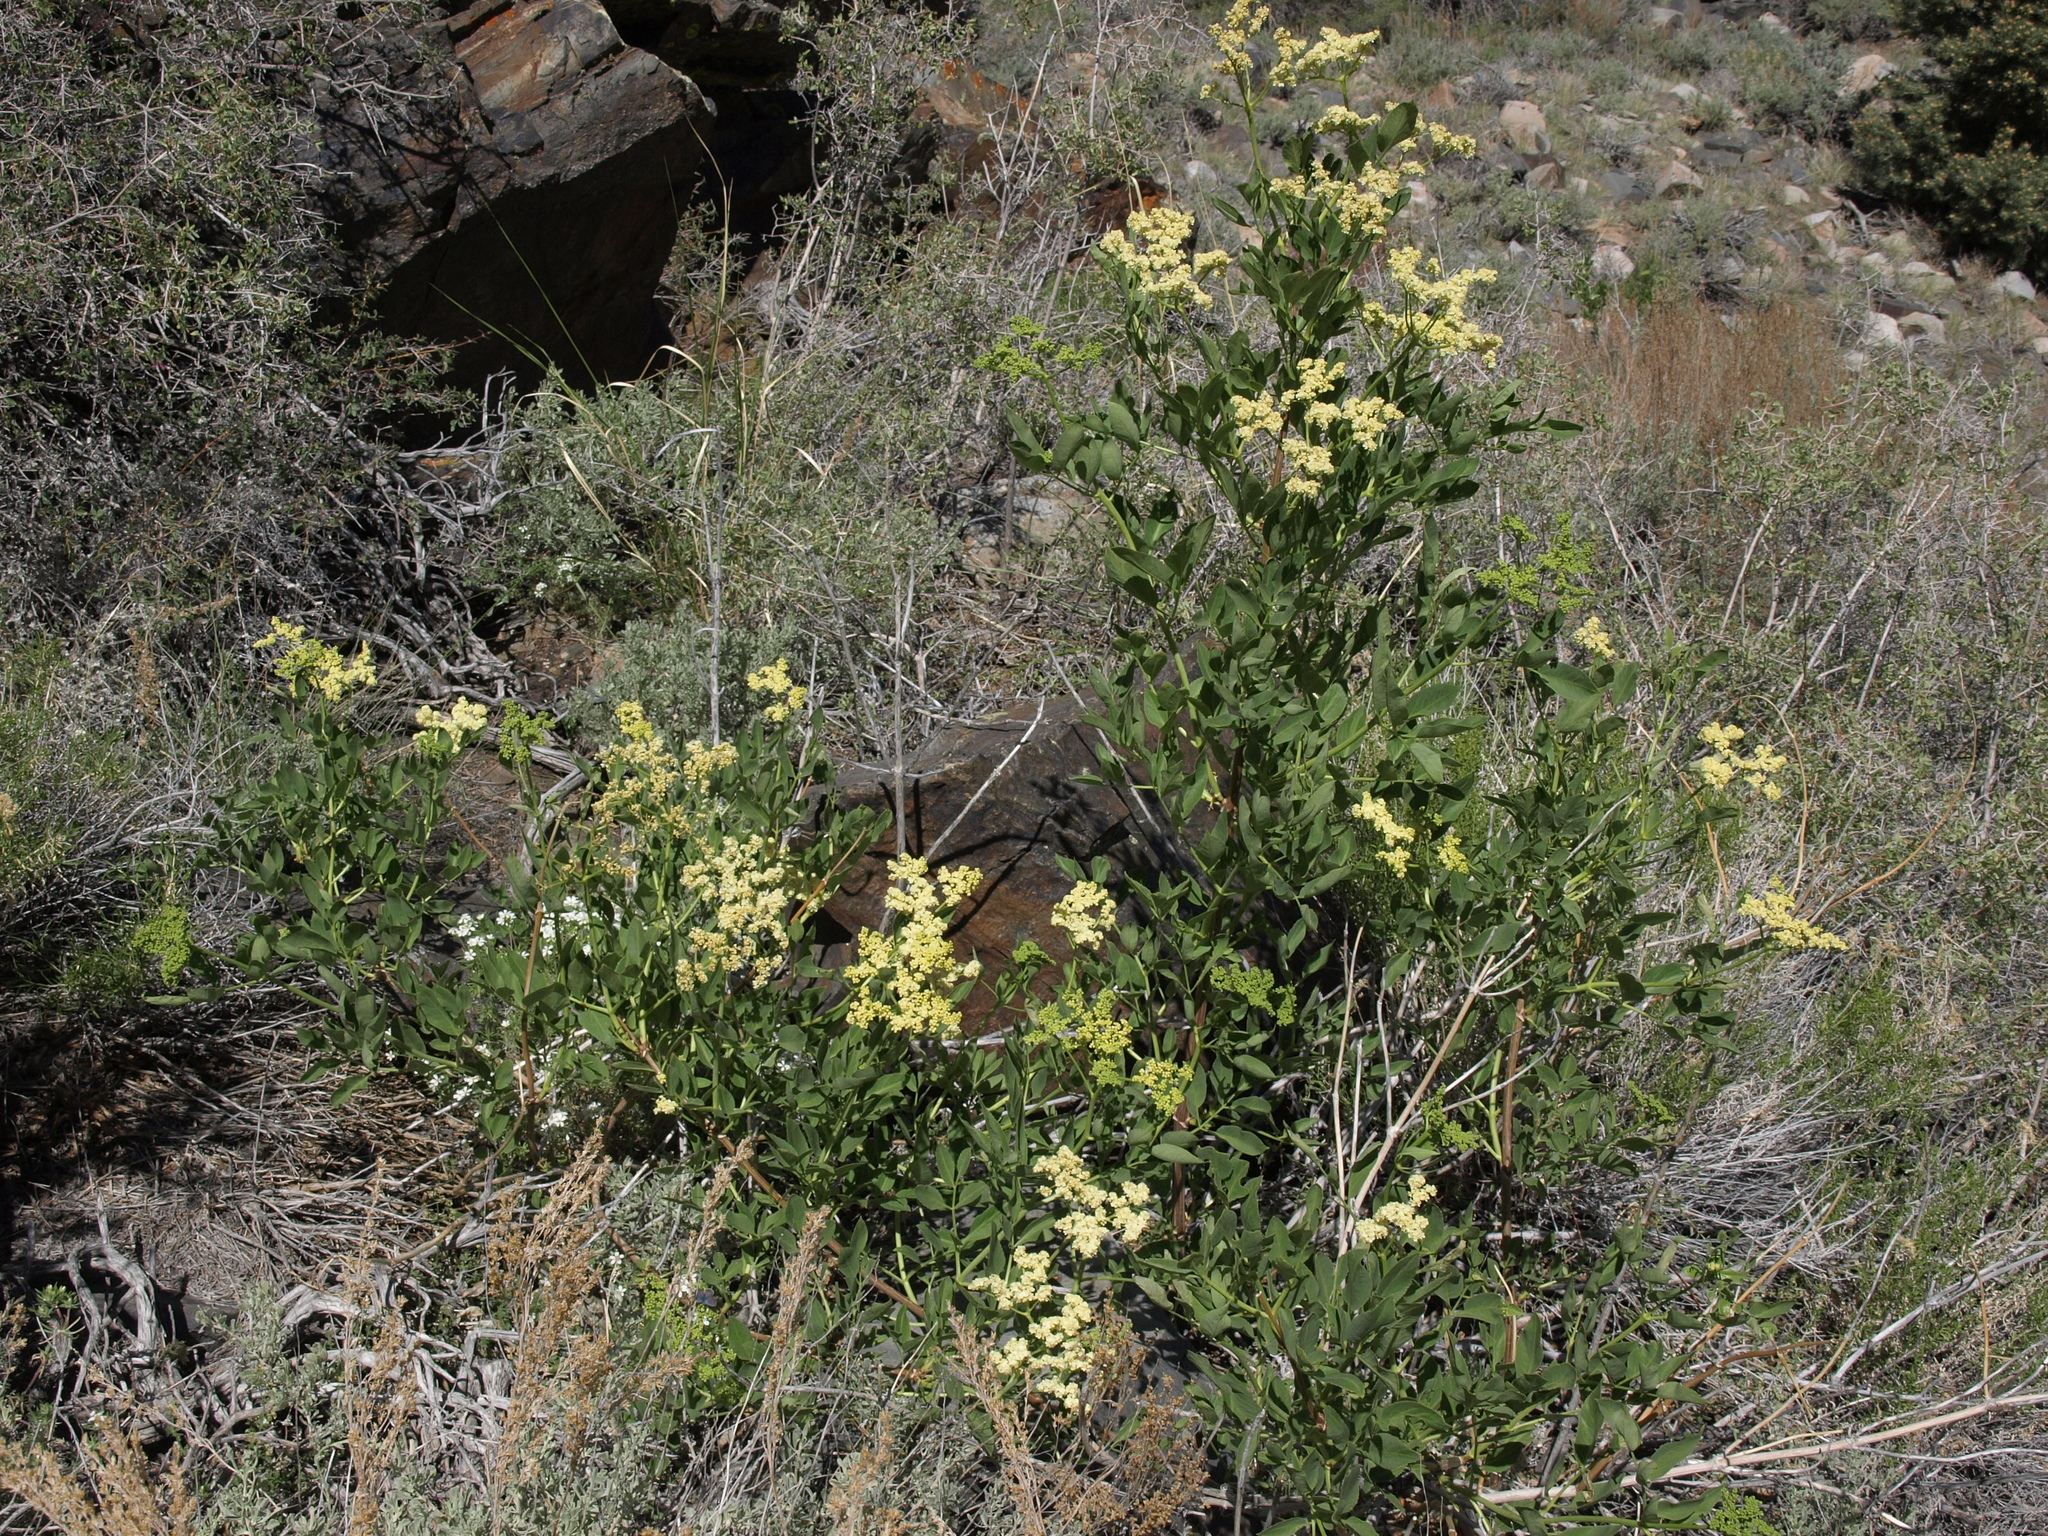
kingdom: Plantae
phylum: Tracheophyta
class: Magnoliopsida
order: Dipsacales
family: Viburnaceae
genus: Sambucus
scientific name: Sambucus cerulea
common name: Blue elder
